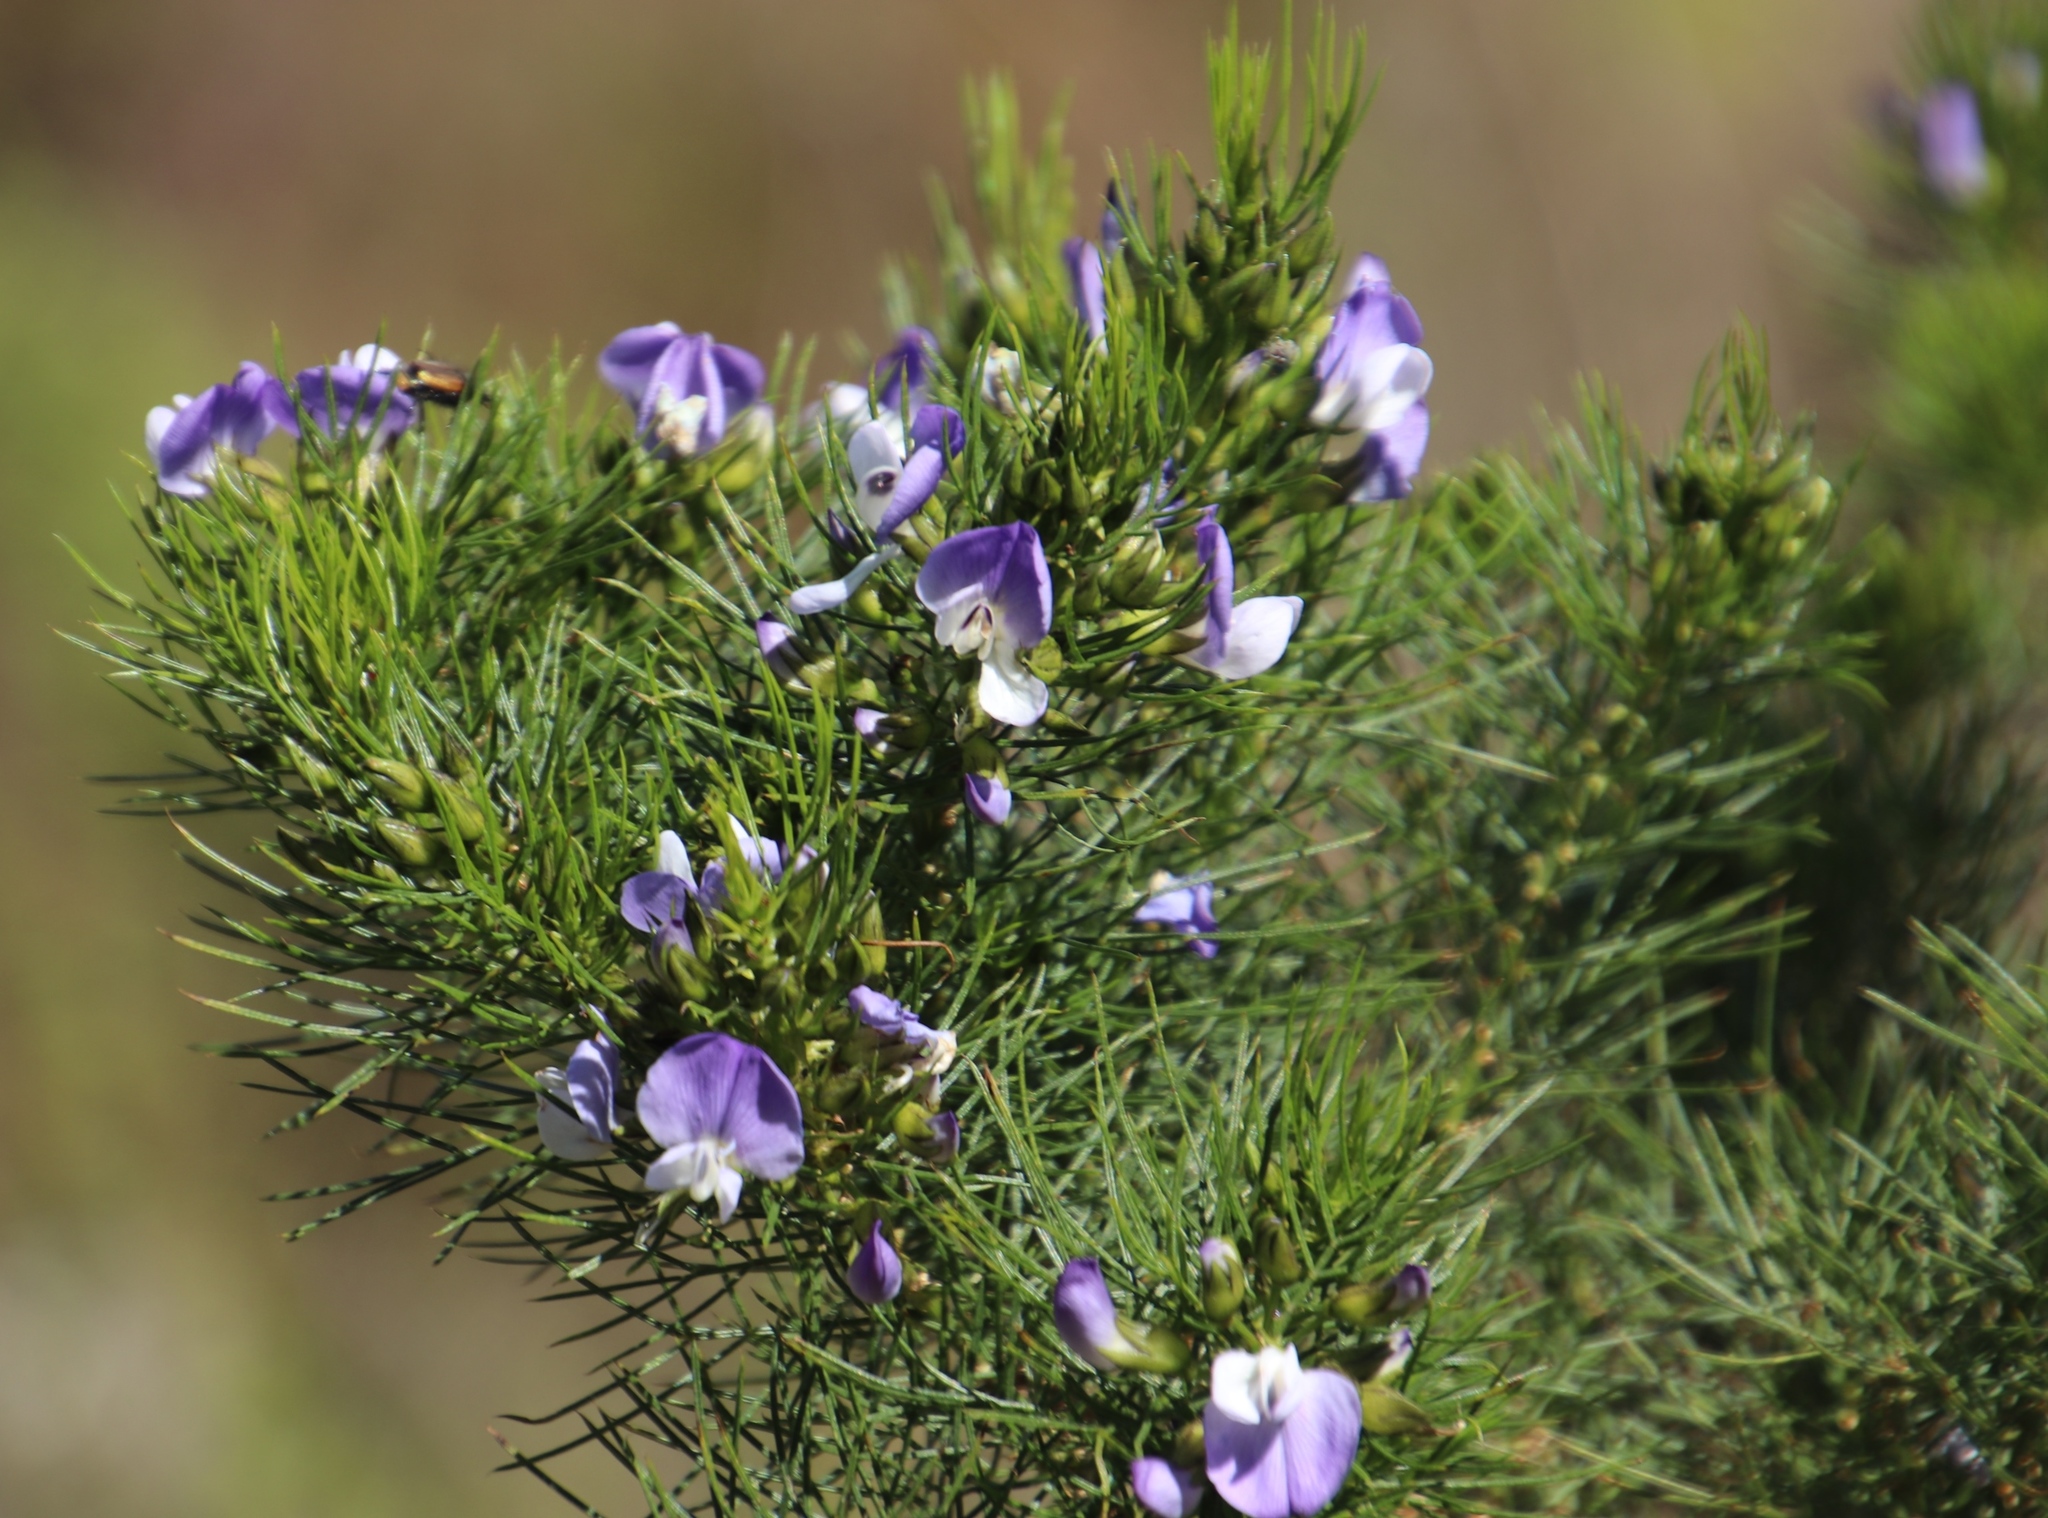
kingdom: Plantae
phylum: Tracheophyta
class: Magnoliopsida
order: Fabales
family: Fabaceae
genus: Psoralea
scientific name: Psoralea pinnata
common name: African scurfpea
